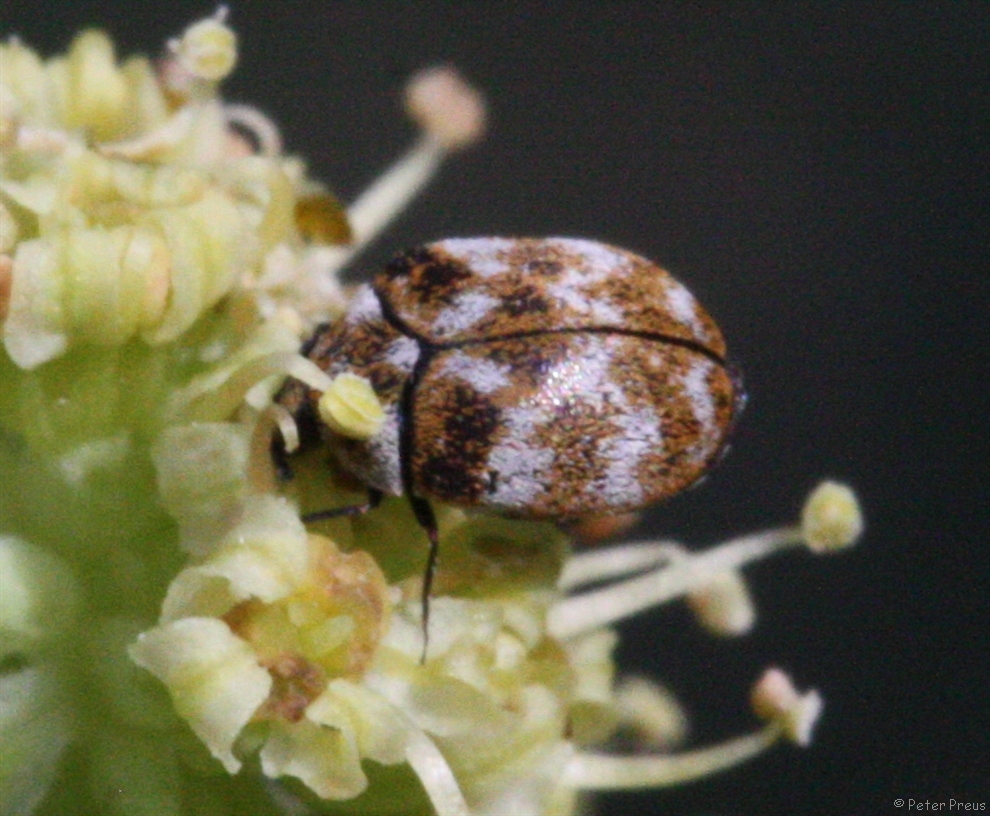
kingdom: Animalia
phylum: Arthropoda
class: Insecta
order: Coleoptera
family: Dermestidae
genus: Anthrenus
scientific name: Anthrenus verbasci
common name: Varied carpet beetle
